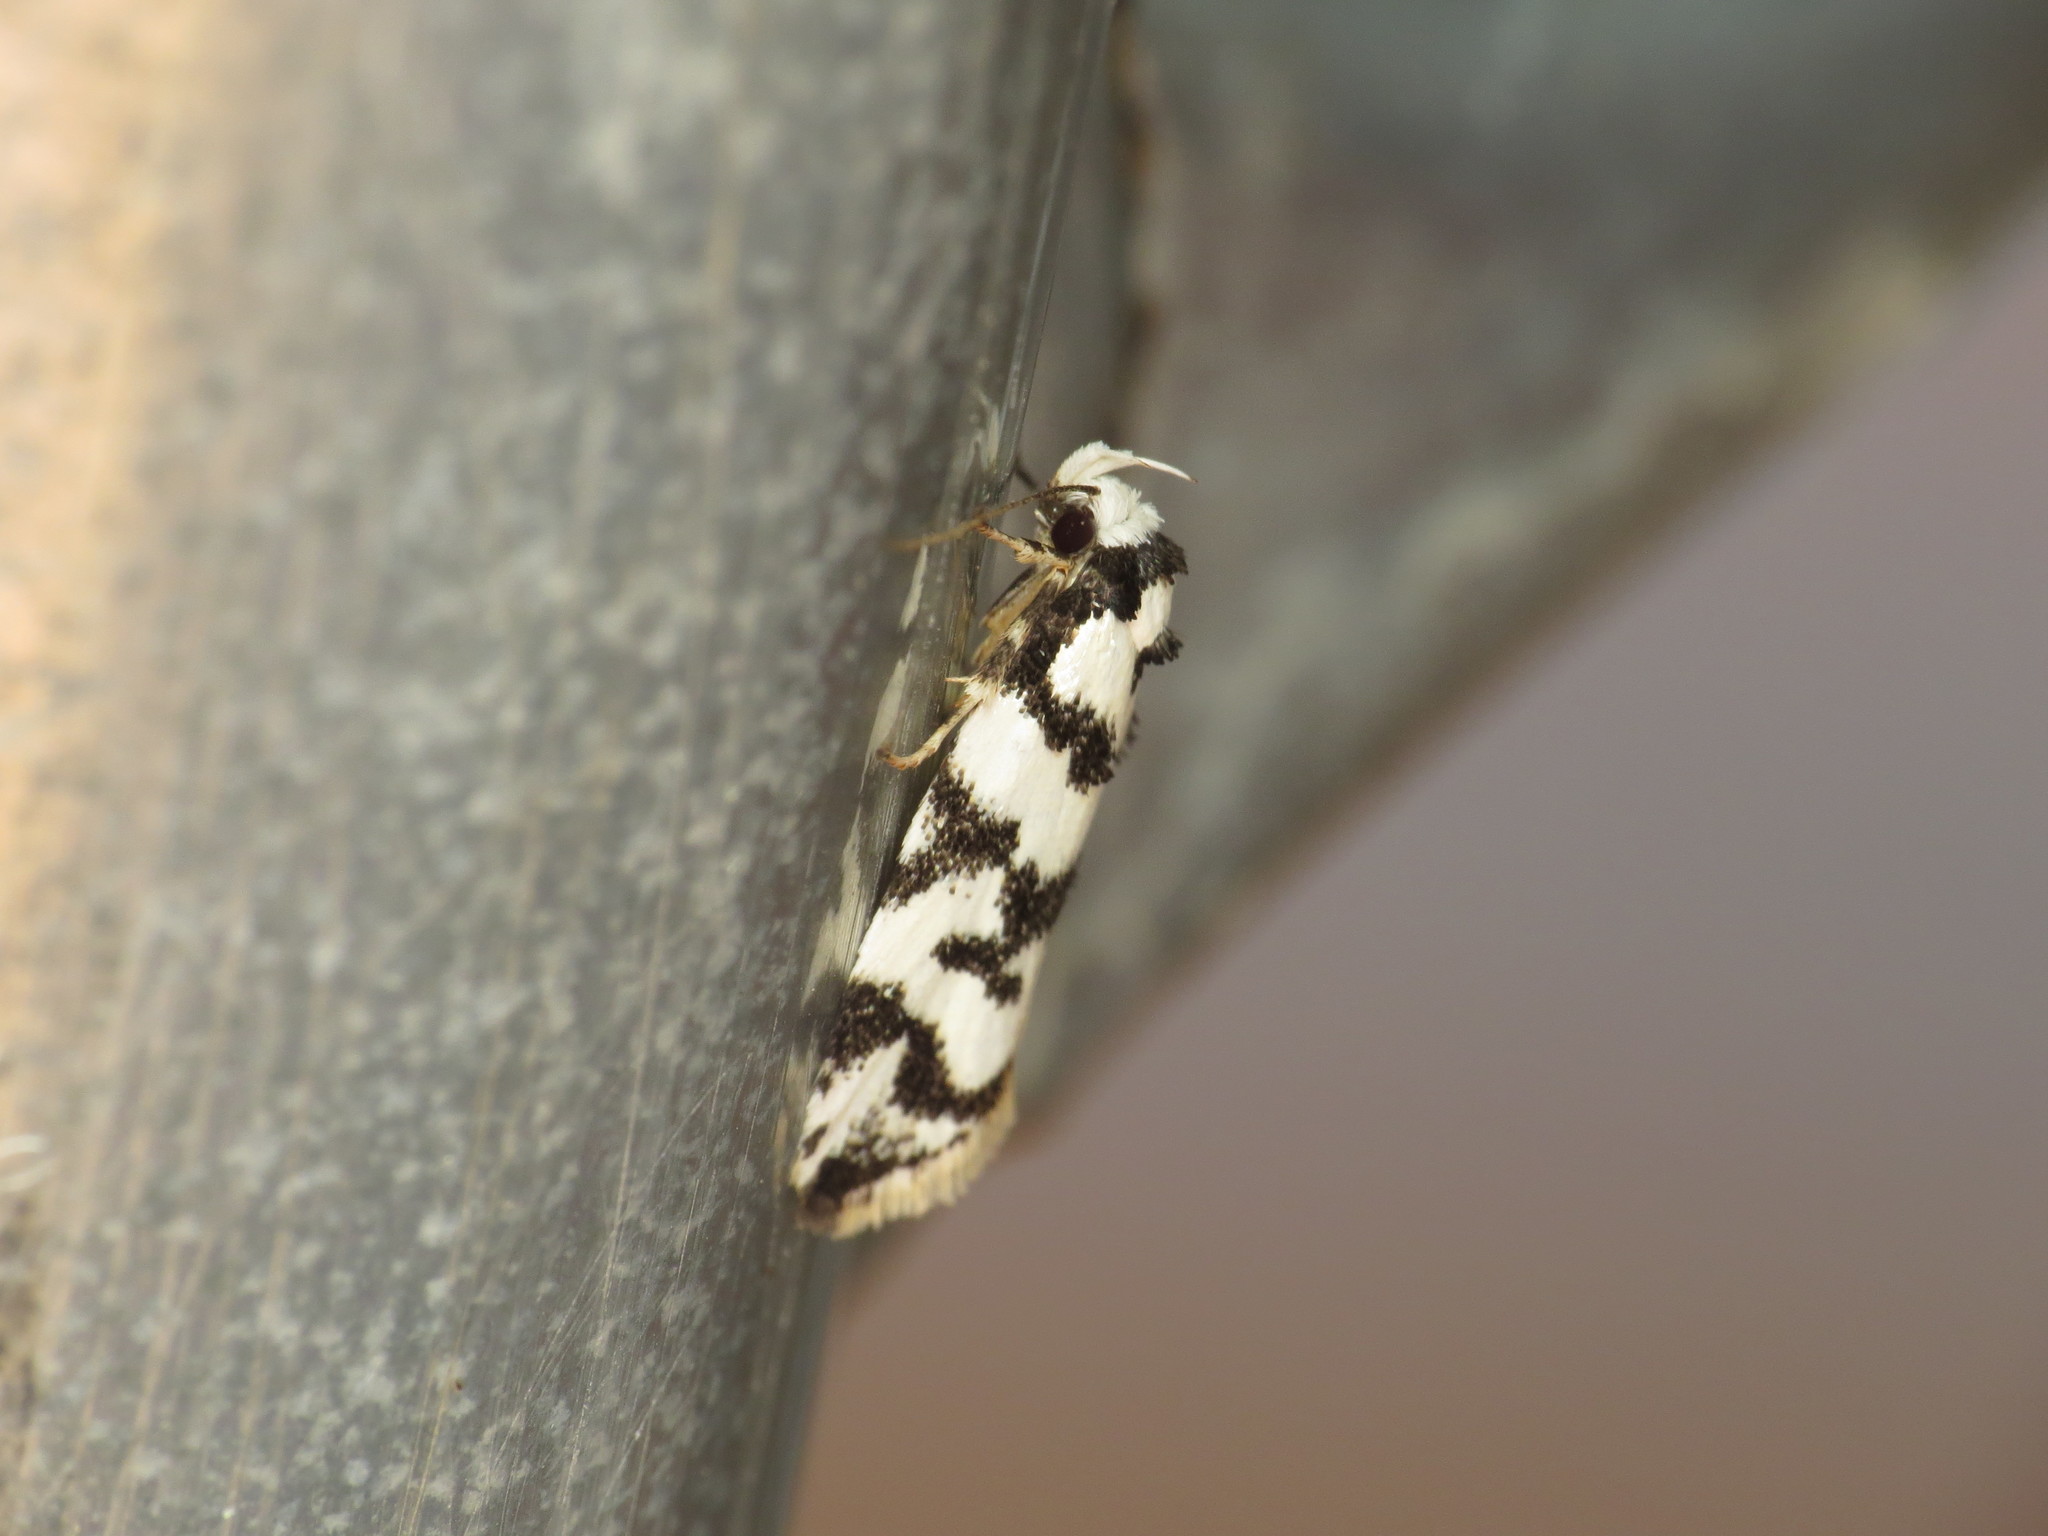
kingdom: Animalia
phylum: Arthropoda
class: Insecta
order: Lepidoptera
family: Oecophoridae
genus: Cosmaresta
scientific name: Cosmaresta charaxias
